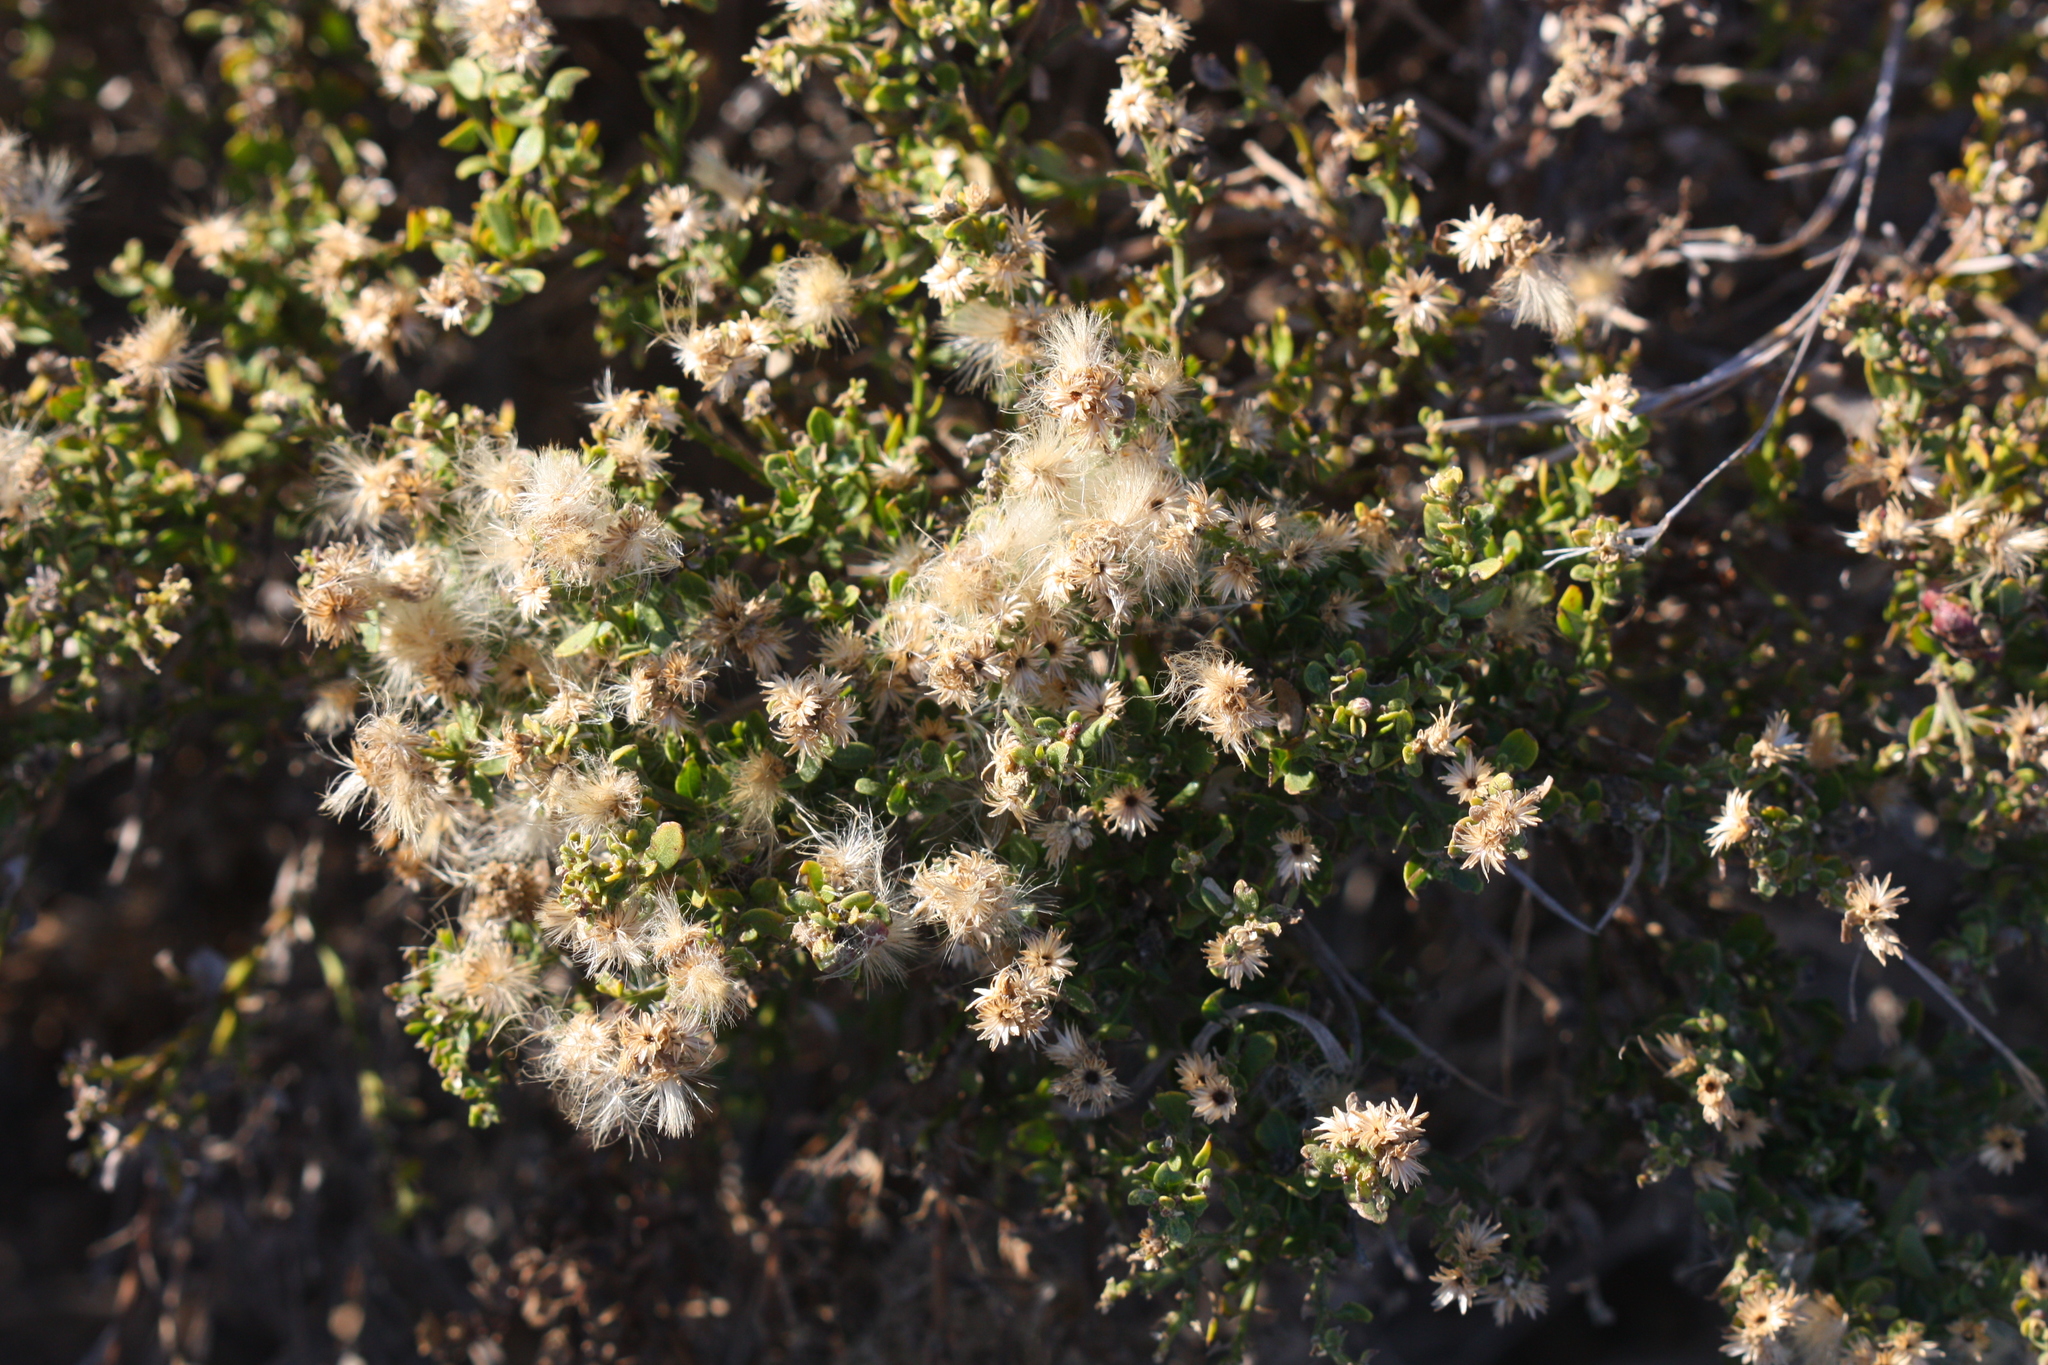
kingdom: Plantae
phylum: Tracheophyta
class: Magnoliopsida
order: Asterales
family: Asteraceae
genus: Baccharis
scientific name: Baccharis pilularis
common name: Coyotebrush
